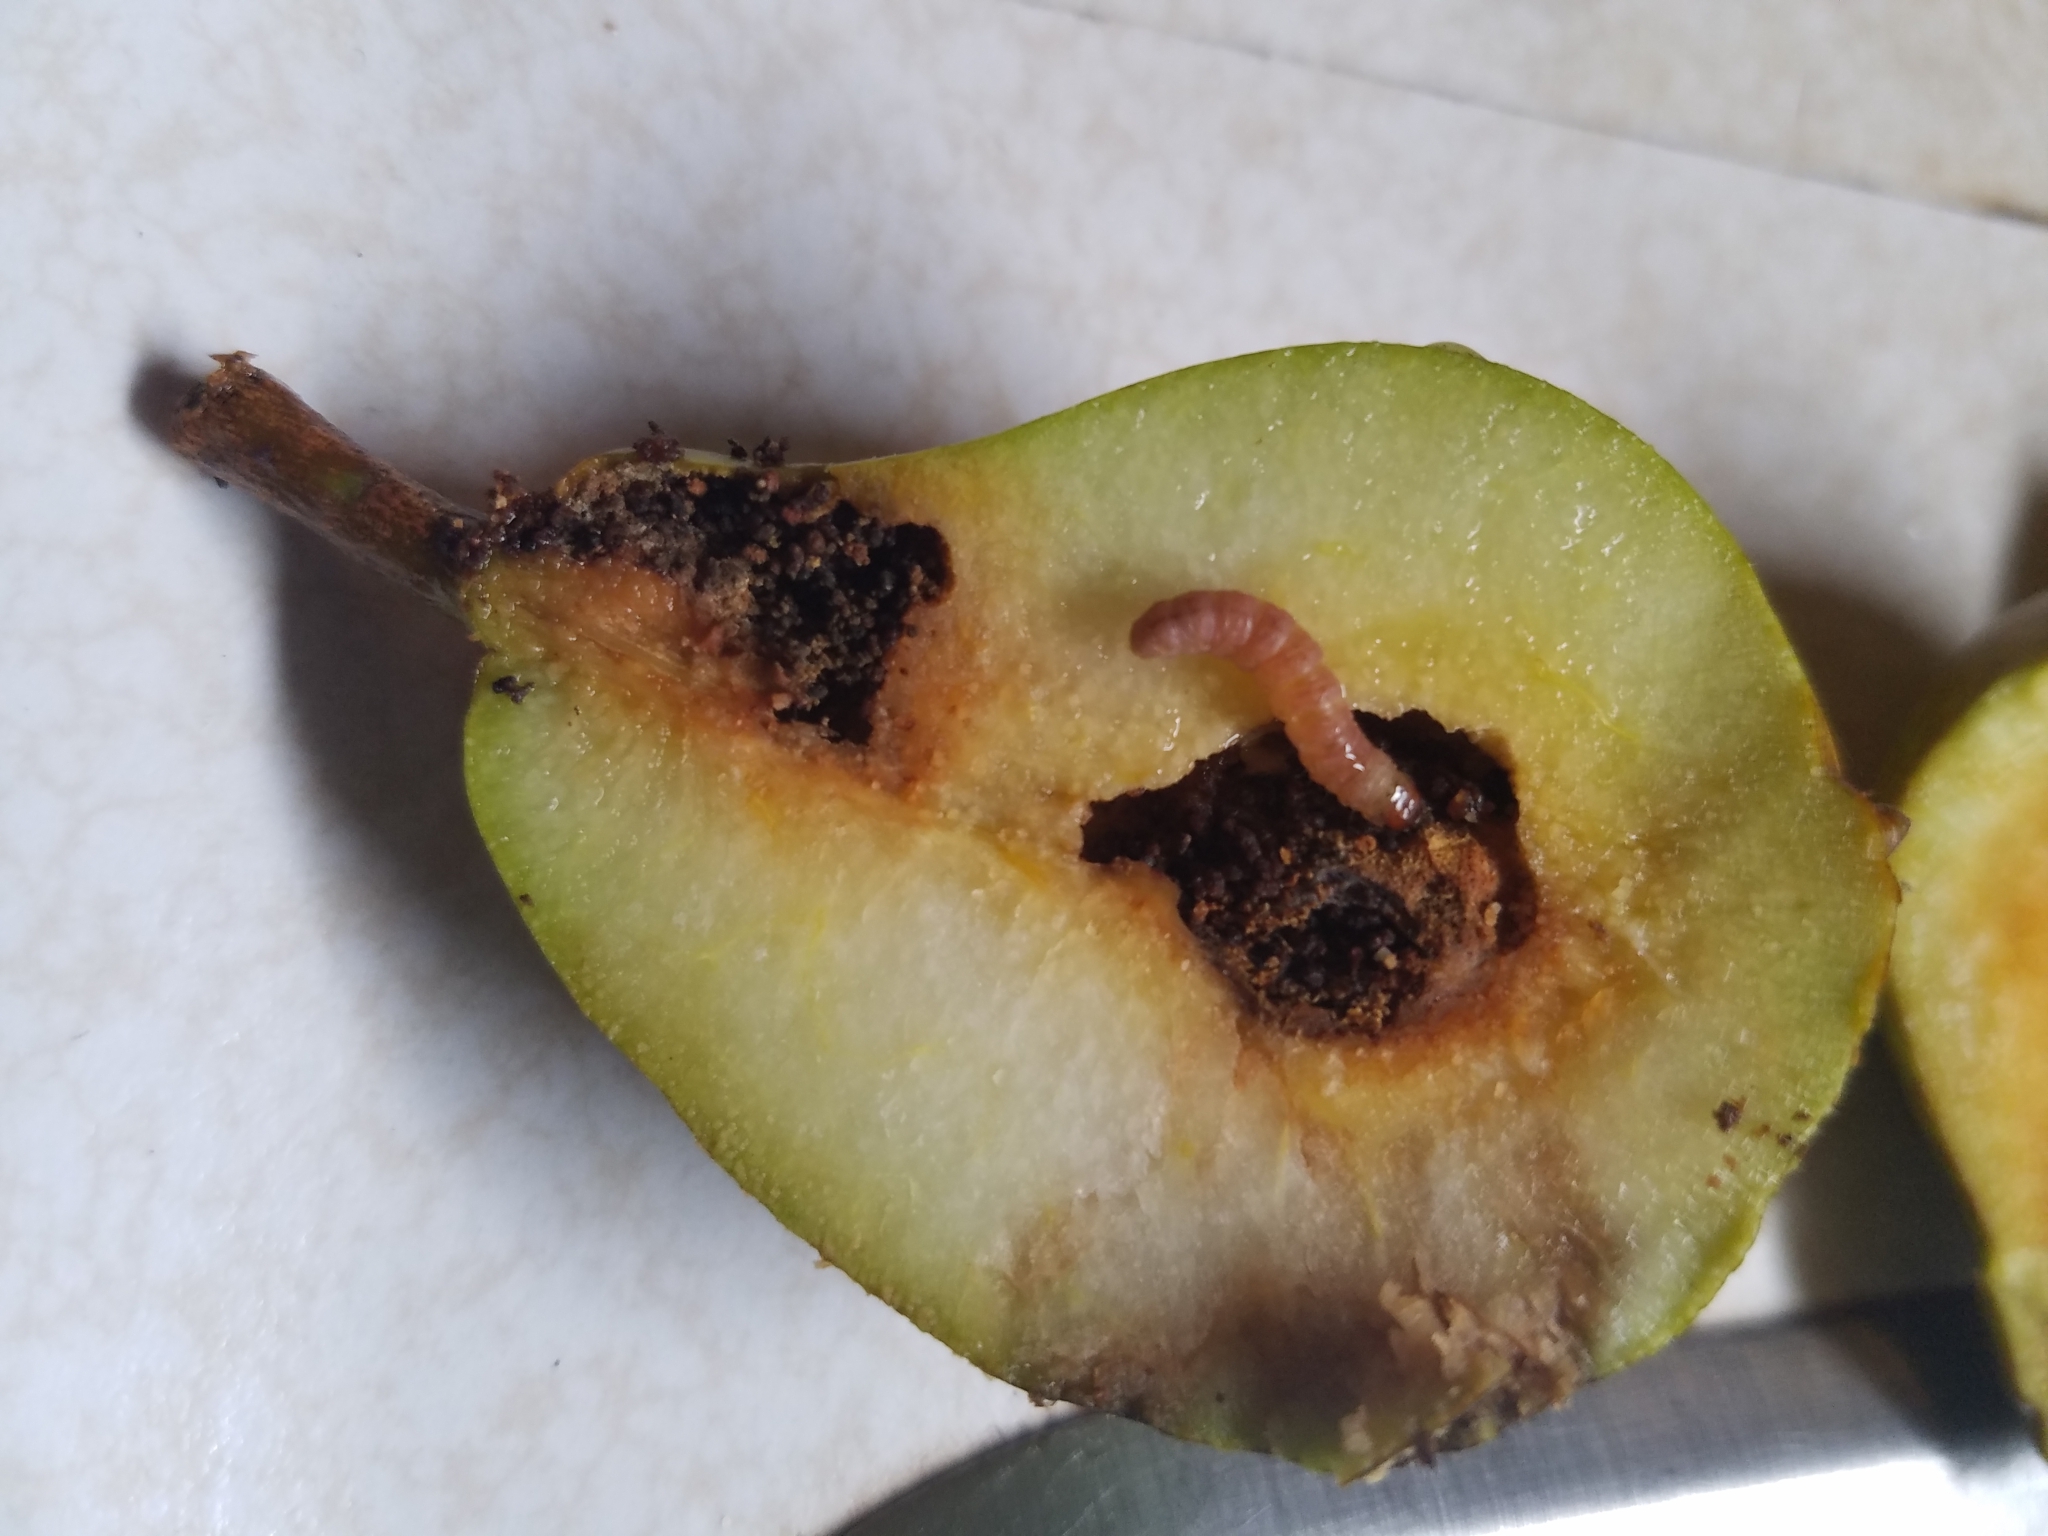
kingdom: Animalia
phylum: Arthropoda
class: Insecta
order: Lepidoptera
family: Tortricidae
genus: Cydia
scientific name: Cydia pomonella
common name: Codling moth
